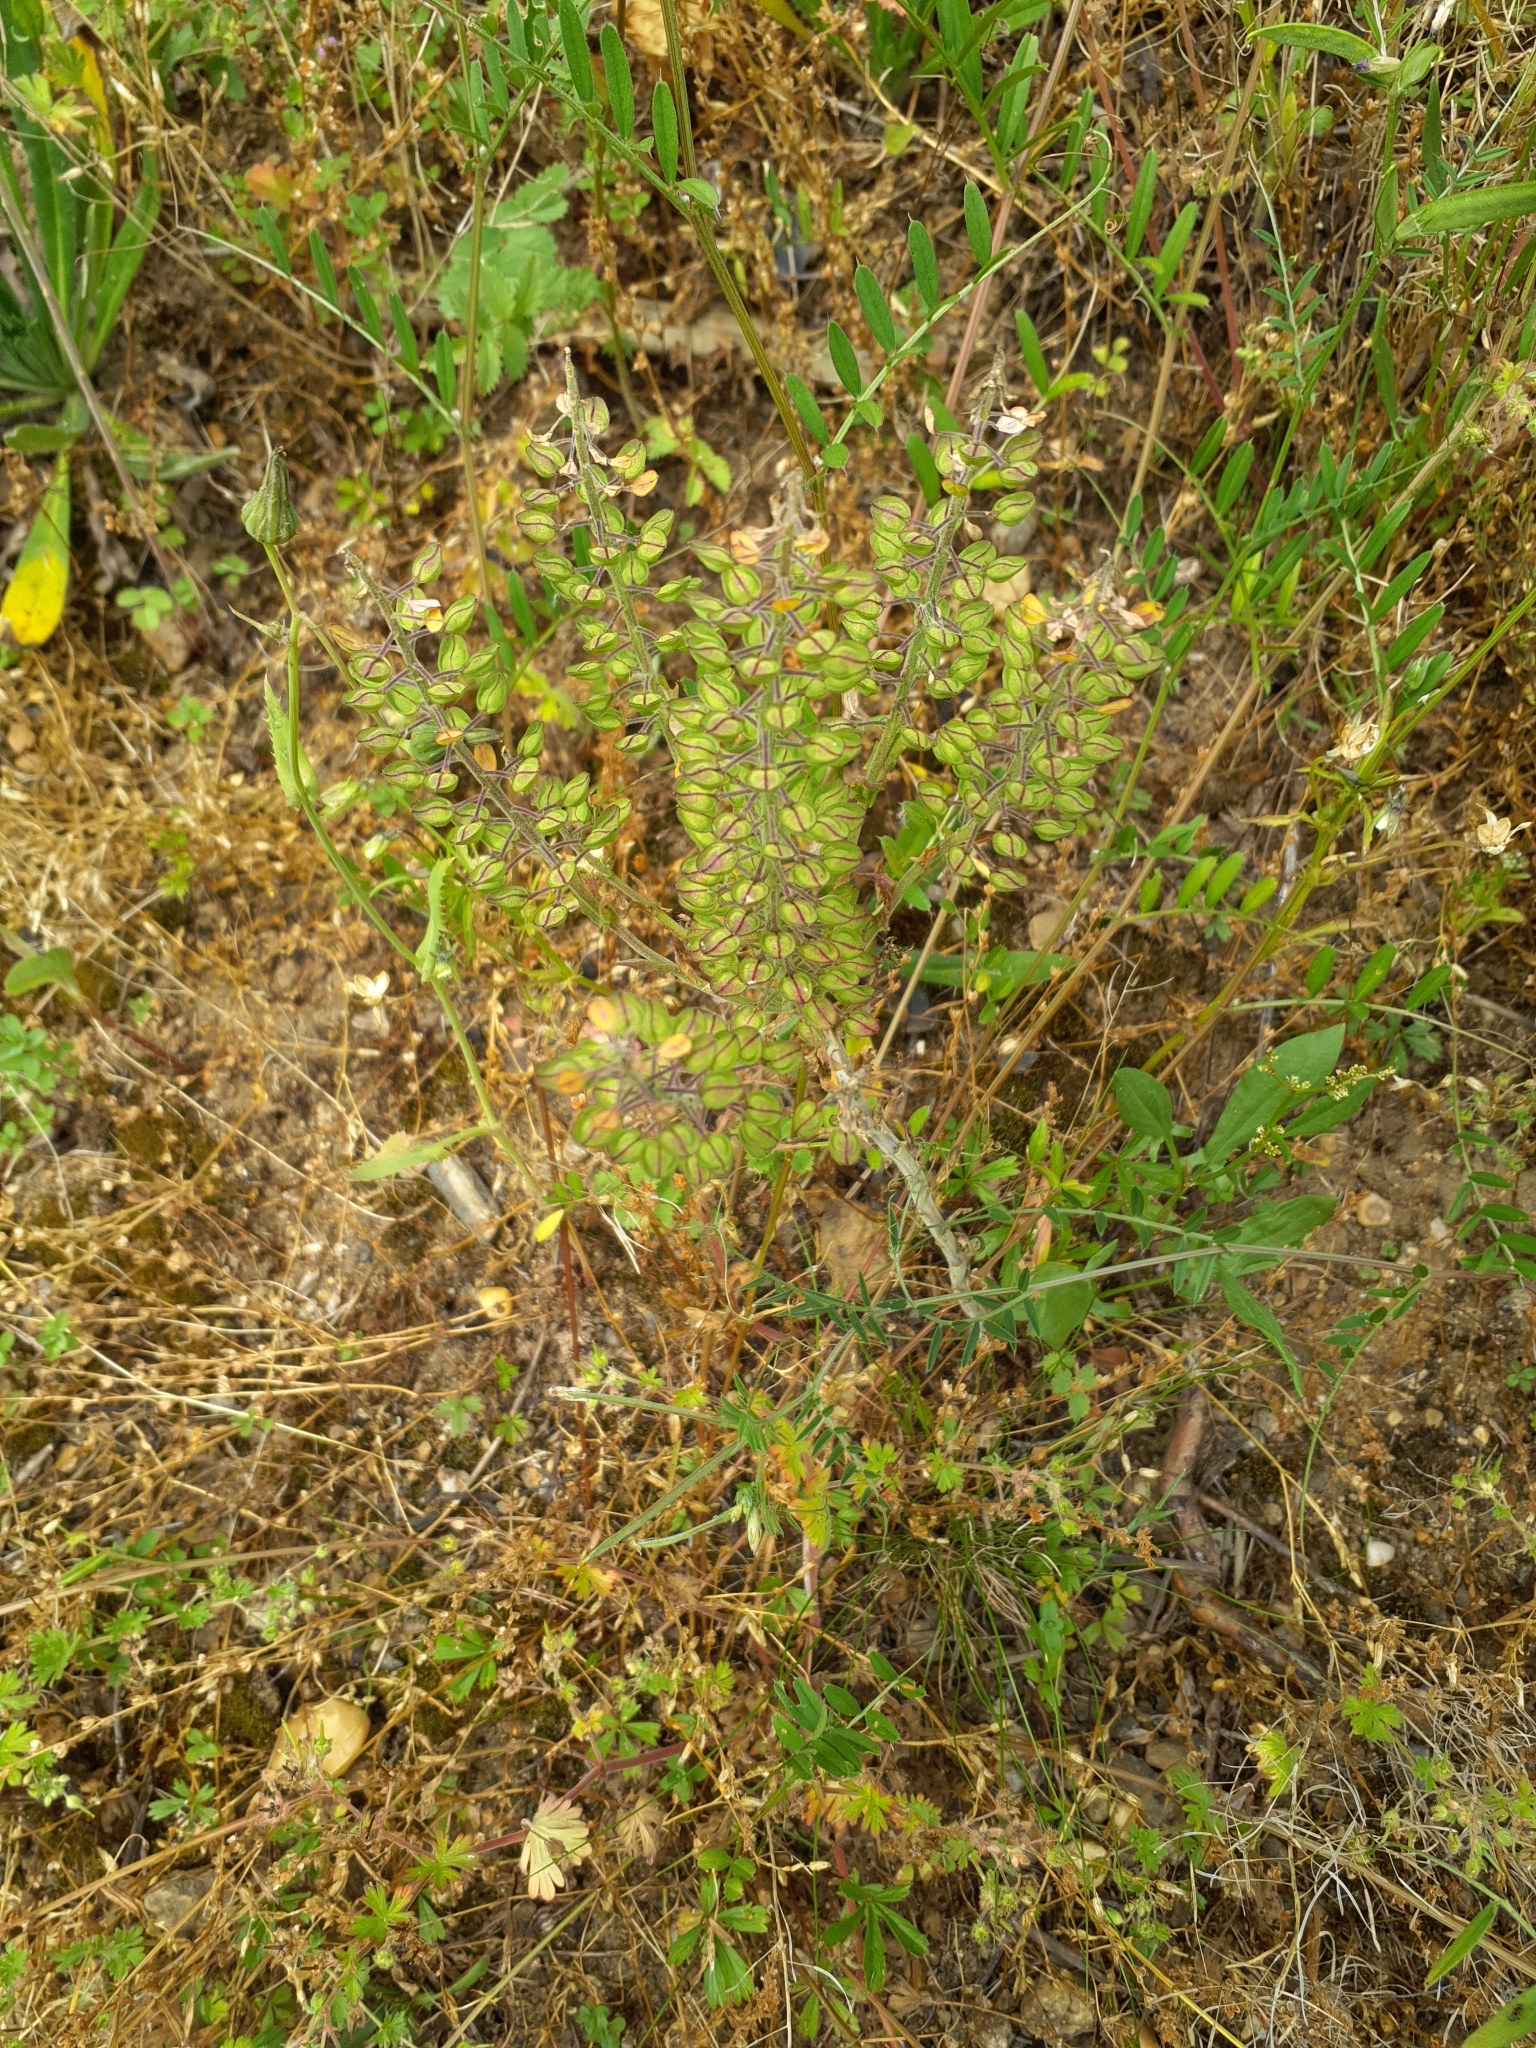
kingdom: Plantae
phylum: Tracheophyta
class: Magnoliopsida
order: Brassicales
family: Brassicaceae
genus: Lepidium
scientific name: Lepidium campestre
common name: Field pepperwort
